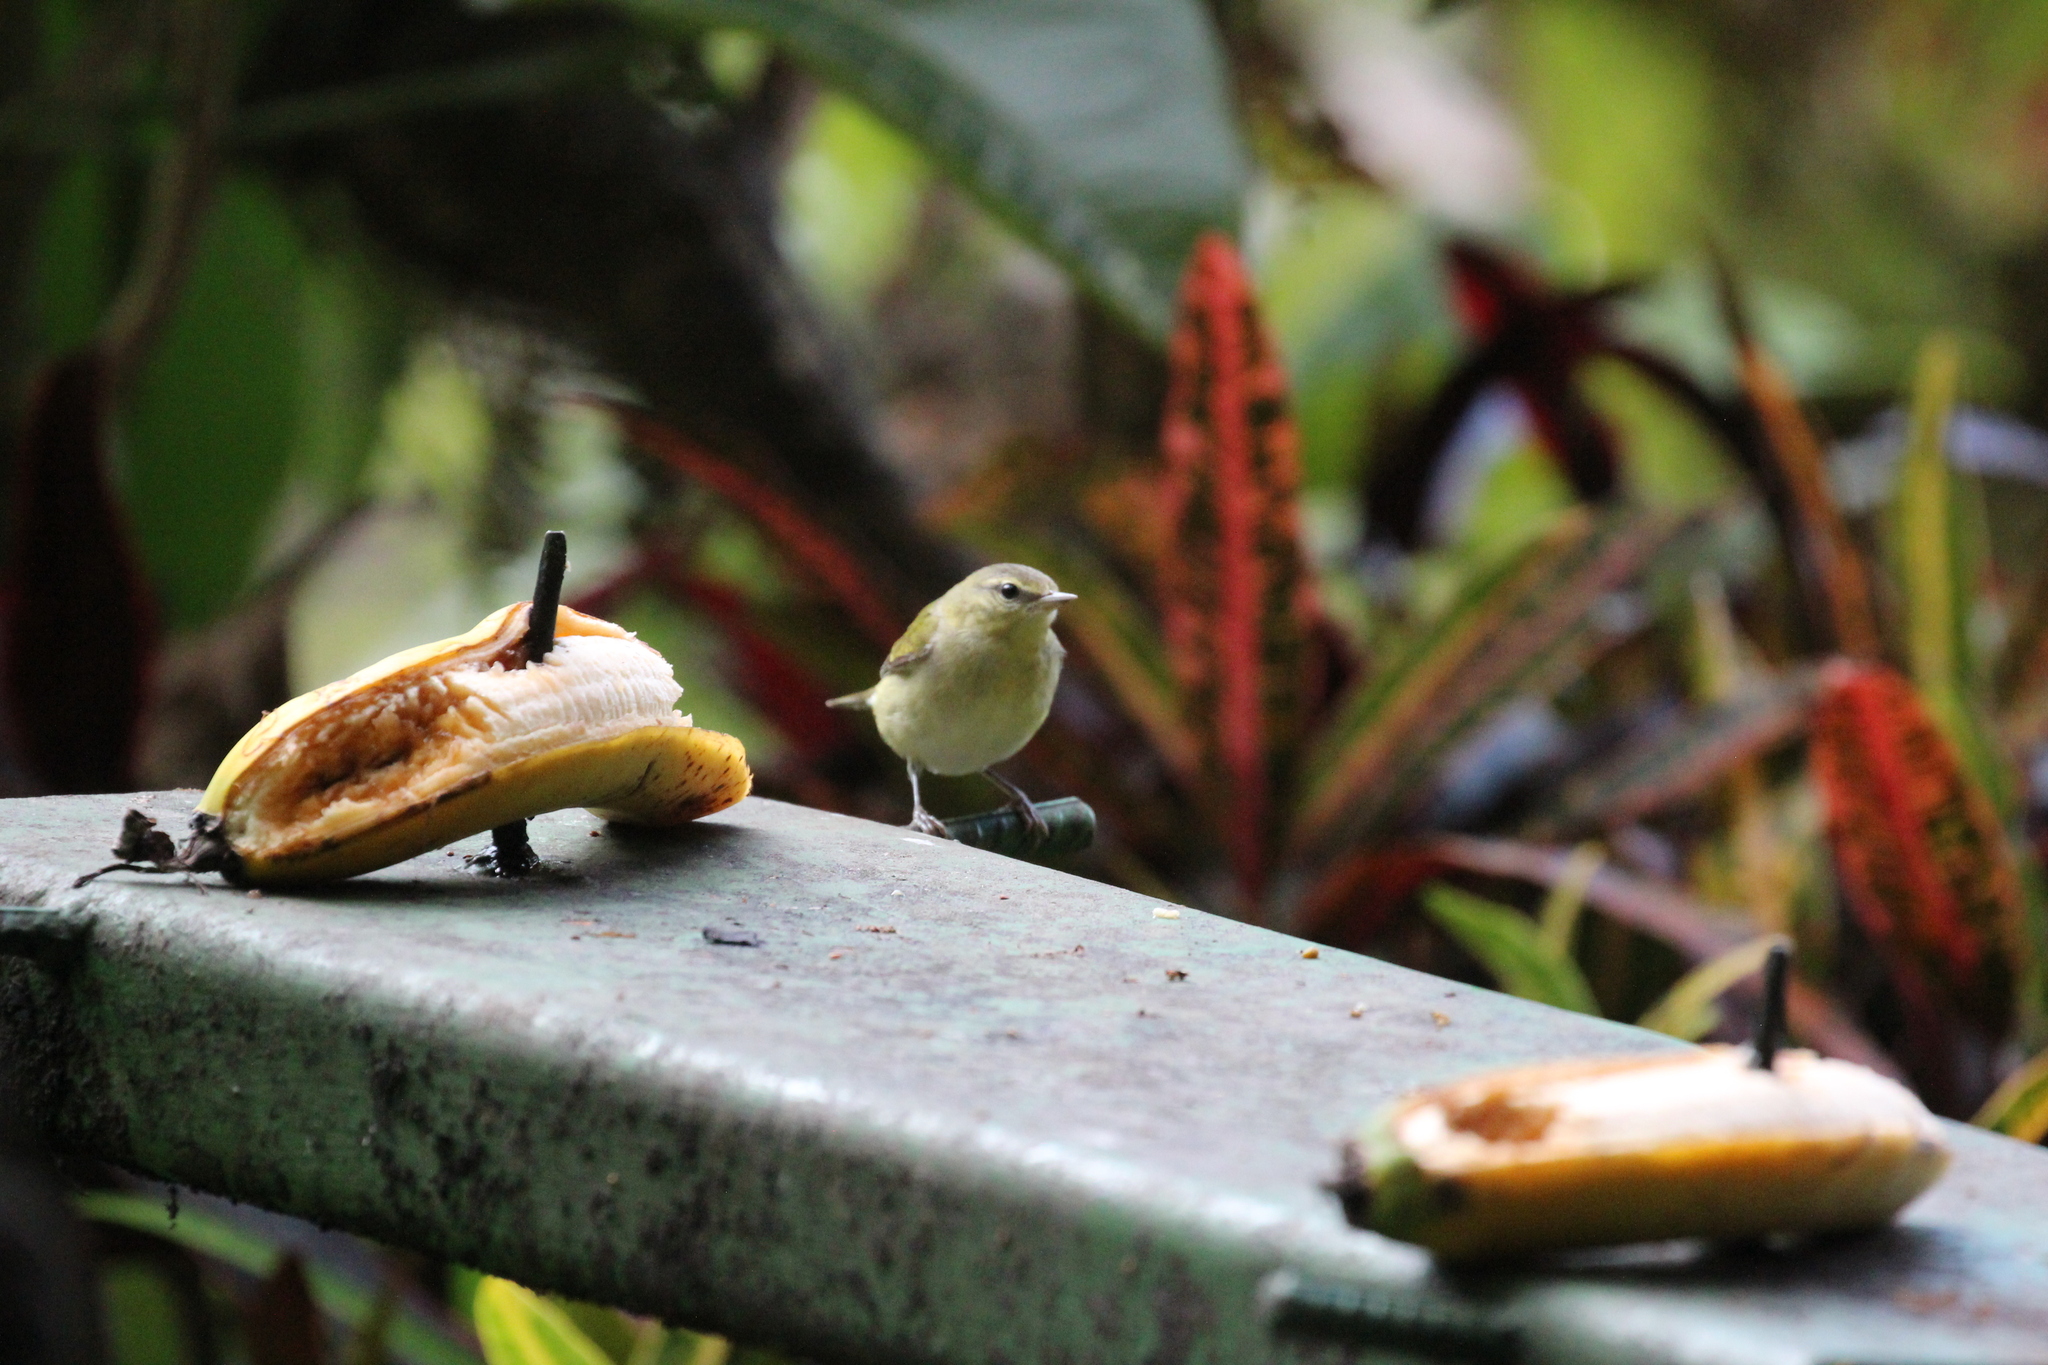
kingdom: Animalia
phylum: Chordata
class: Aves
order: Passeriformes
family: Parulidae
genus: Leiothlypis
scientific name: Leiothlypis peregrina
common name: Tennessee warbler
